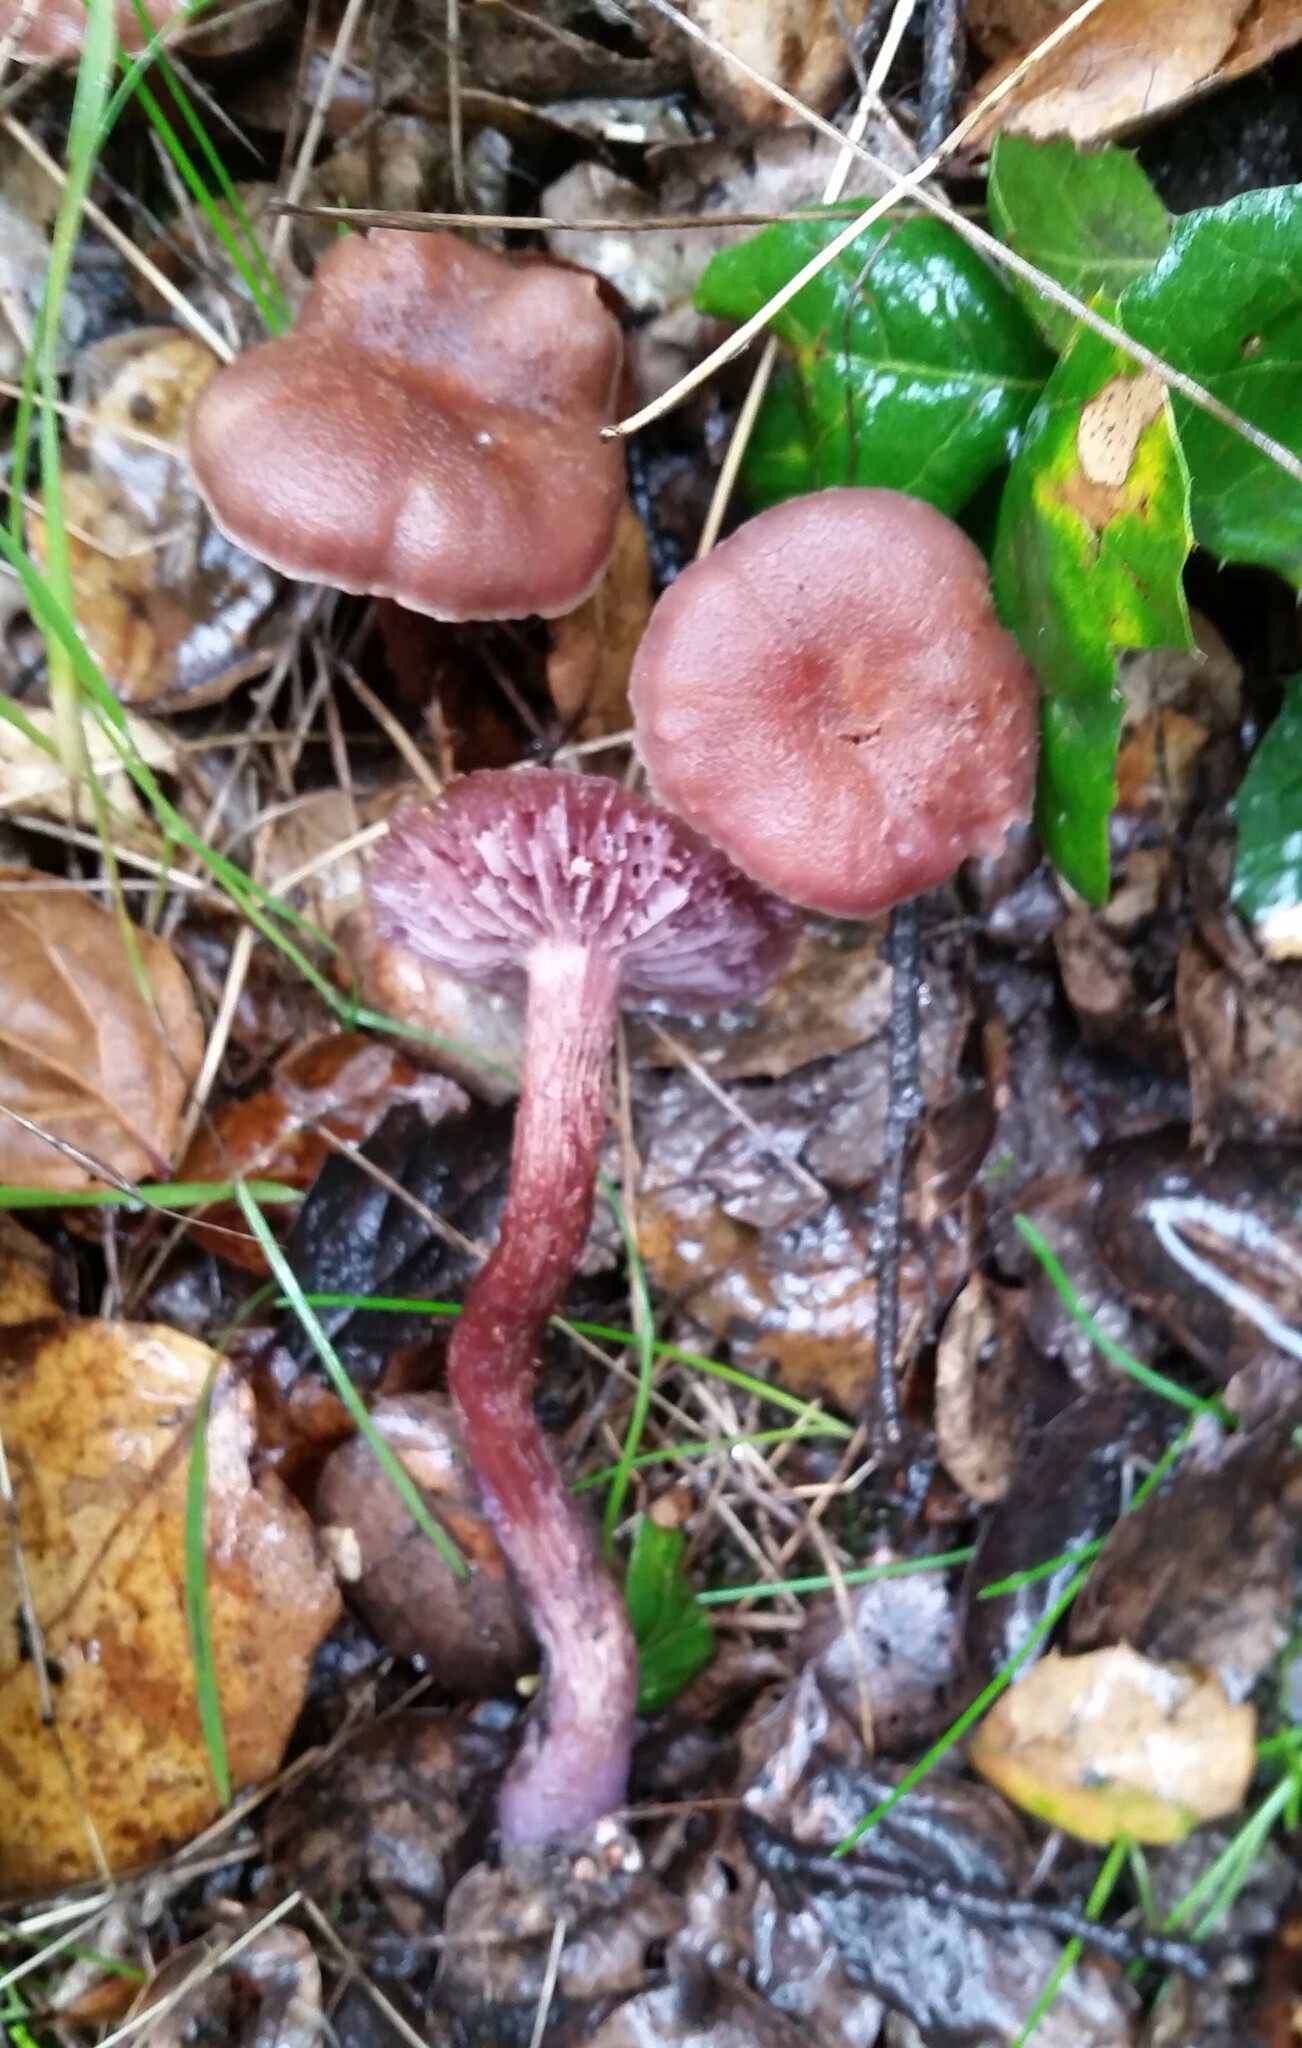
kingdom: Fungi
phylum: Basidiomycota
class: Agaricomycetes
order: Agaricales
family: Hydnangiaceae
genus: Laccaria
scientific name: Laccaria amethysteo-occidentalis
